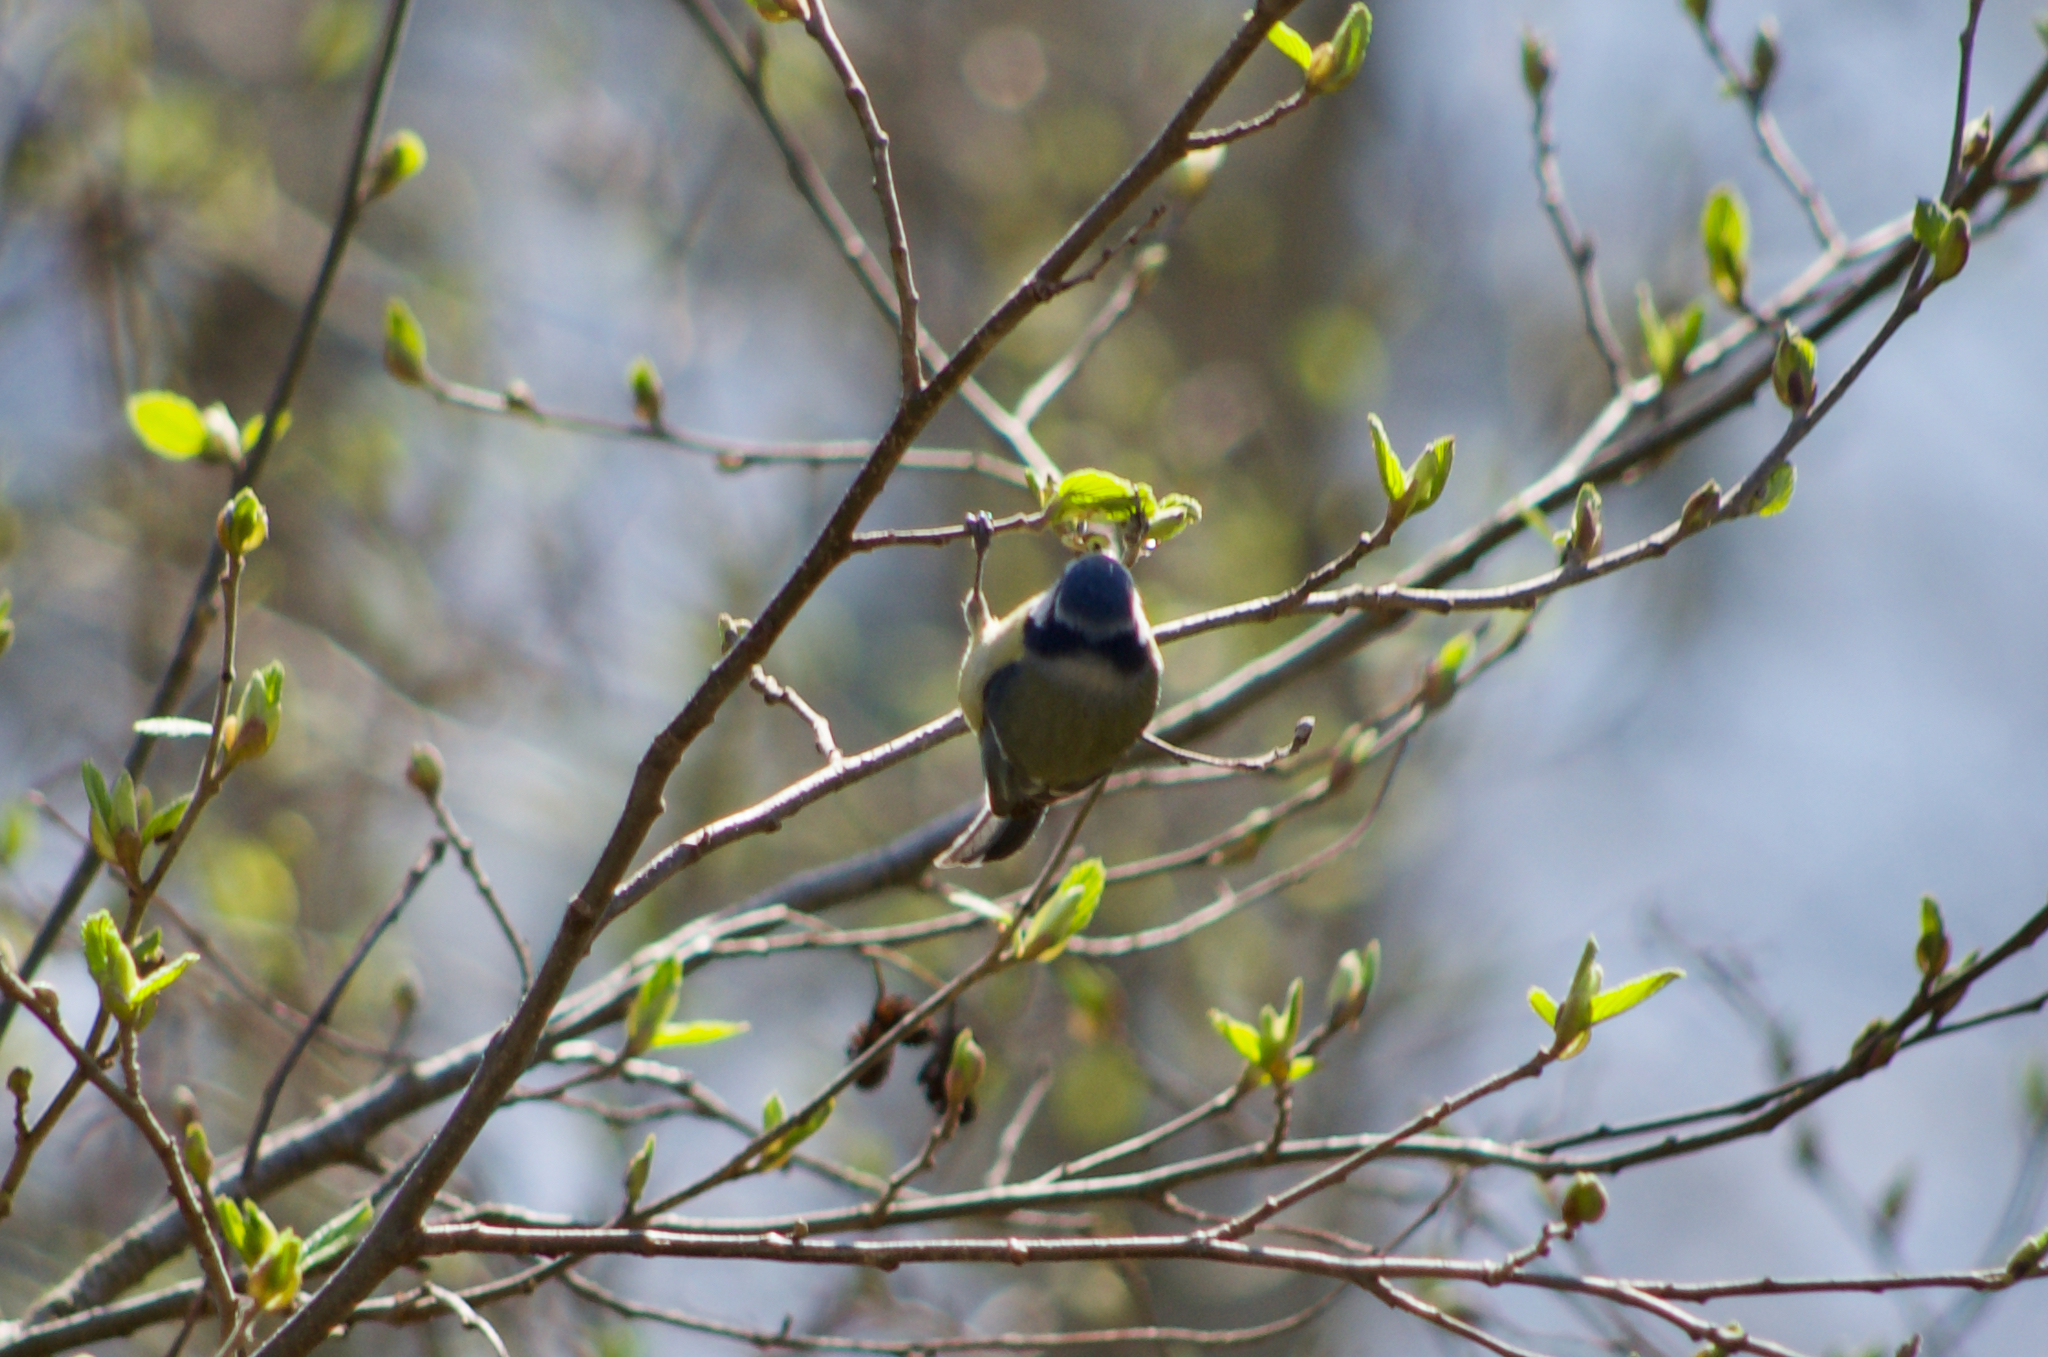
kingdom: Animalia
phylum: Chordata
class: Aves
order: Passeriformes
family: Paridae
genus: Cyanistes
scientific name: Cyanistes caeruleus
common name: Eurasian blue tit
